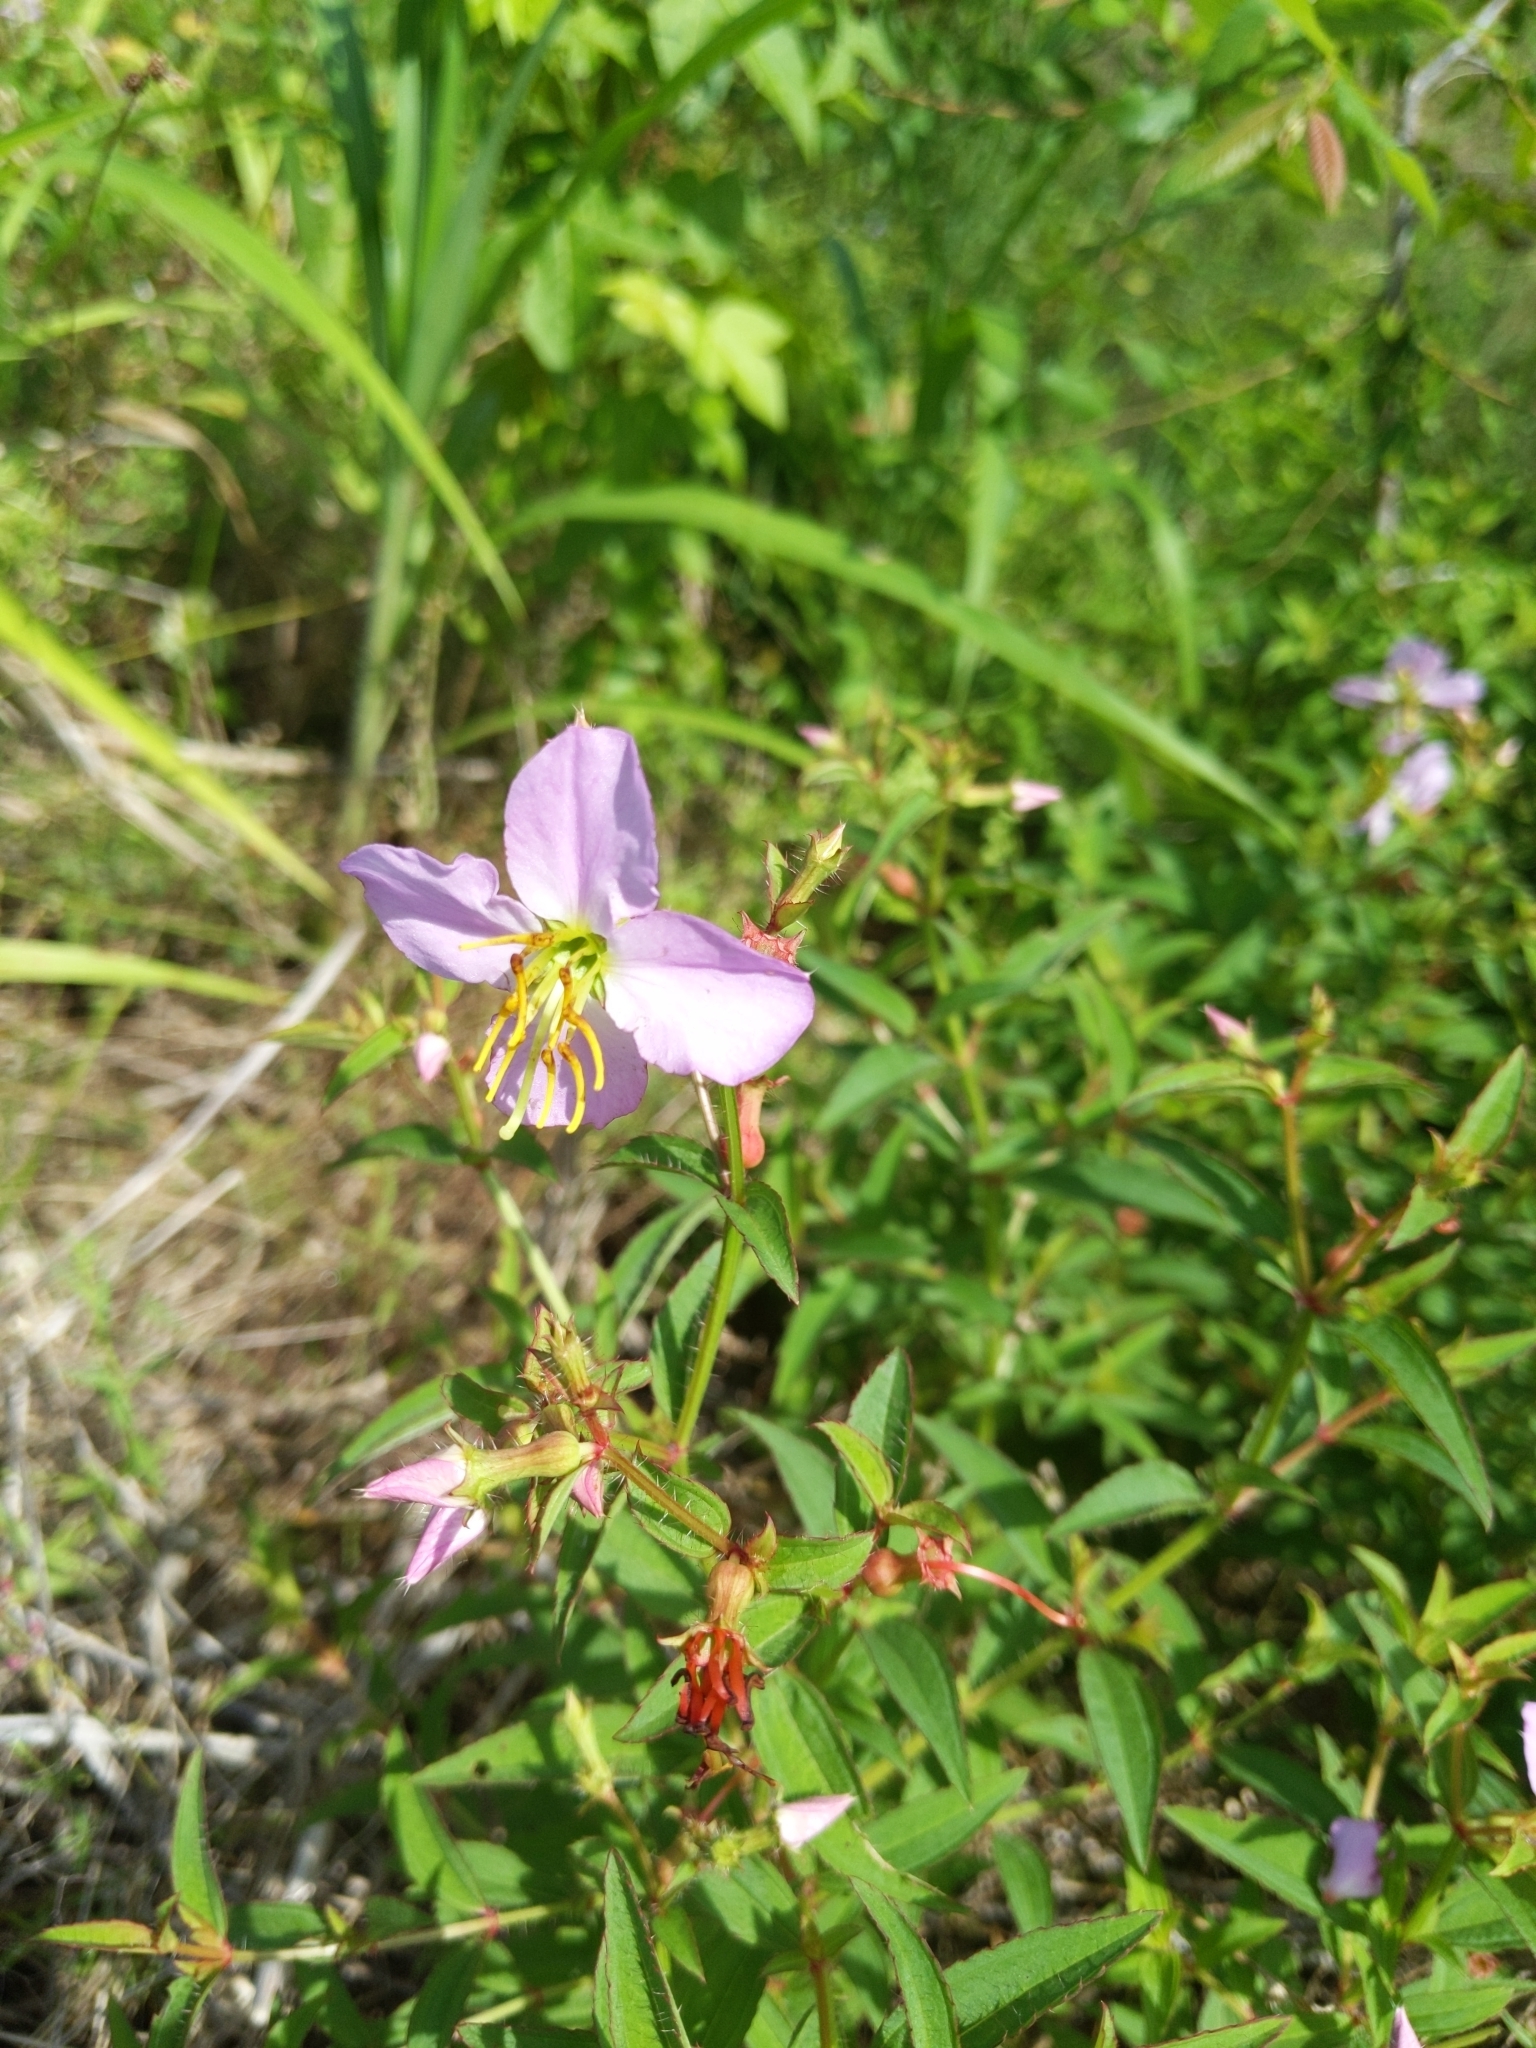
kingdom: Plantae
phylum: Tracheophyta
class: Magnoliopsida
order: Myrtales
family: Melastomataceae
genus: Rhexia
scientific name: Rhexia virginica
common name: Common meadow beauty
